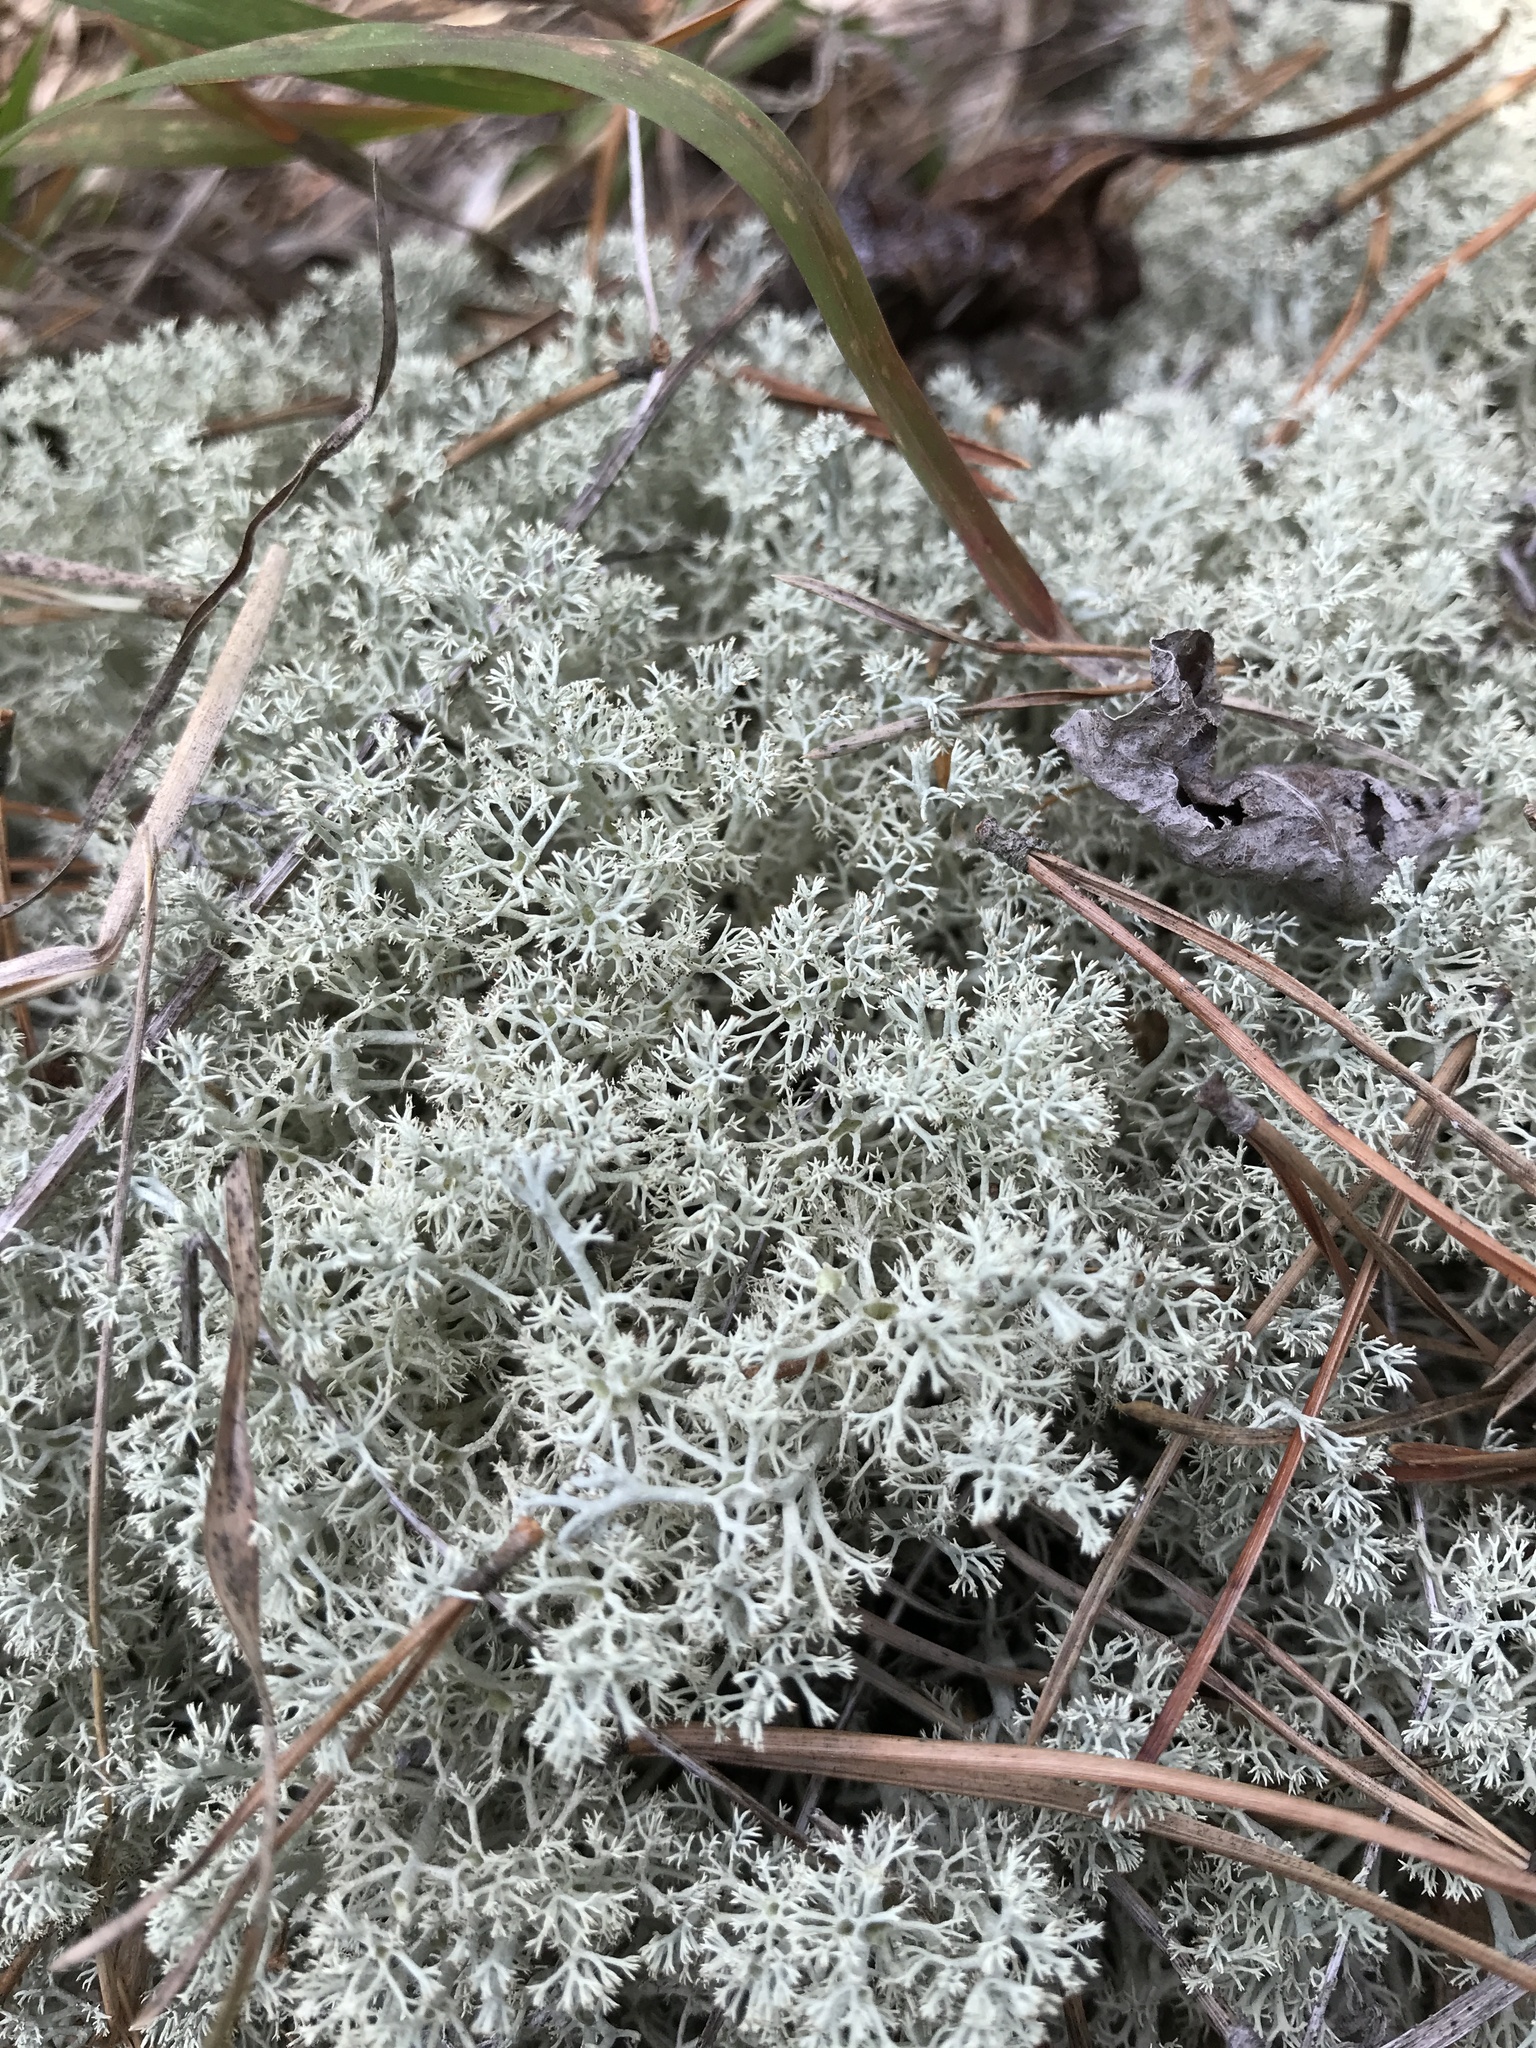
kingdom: Fungi
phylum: Ascomycota
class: Lecanoromycetes
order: Lecanorales
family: Cladoniaceae
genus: Cladonia
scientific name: Cladonia arbuscula
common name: Reindeer lichen
